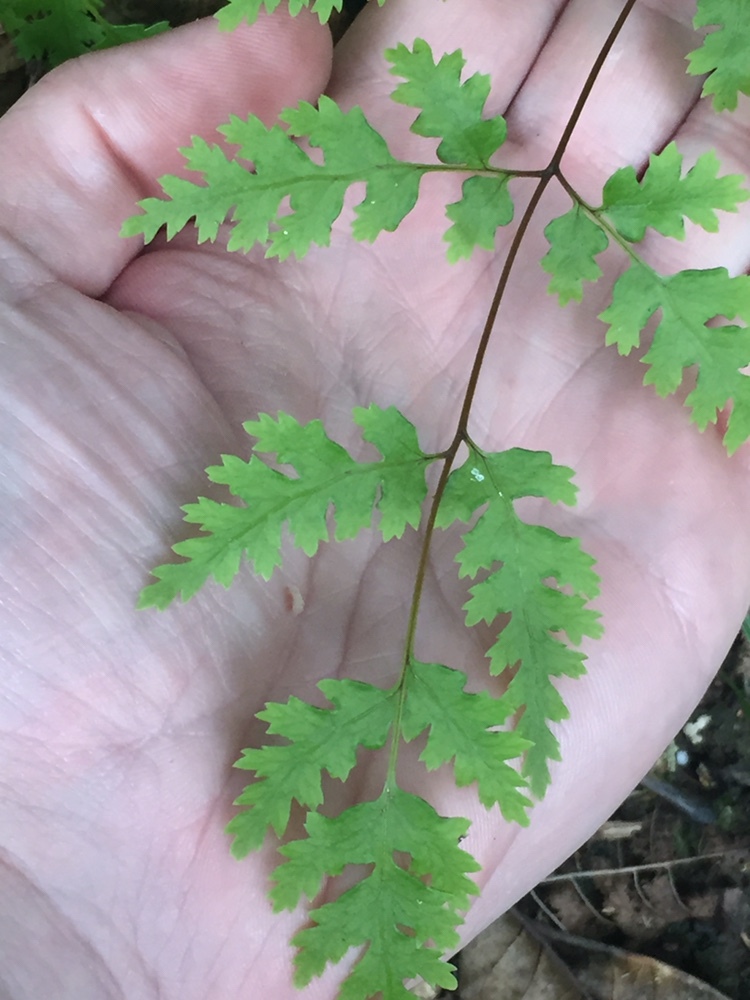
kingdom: Plantae
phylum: Tracheophyta
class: Polypodiopsida
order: Polypodiales
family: Pteridaceae
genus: Pteris
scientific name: Pteris macilenta
